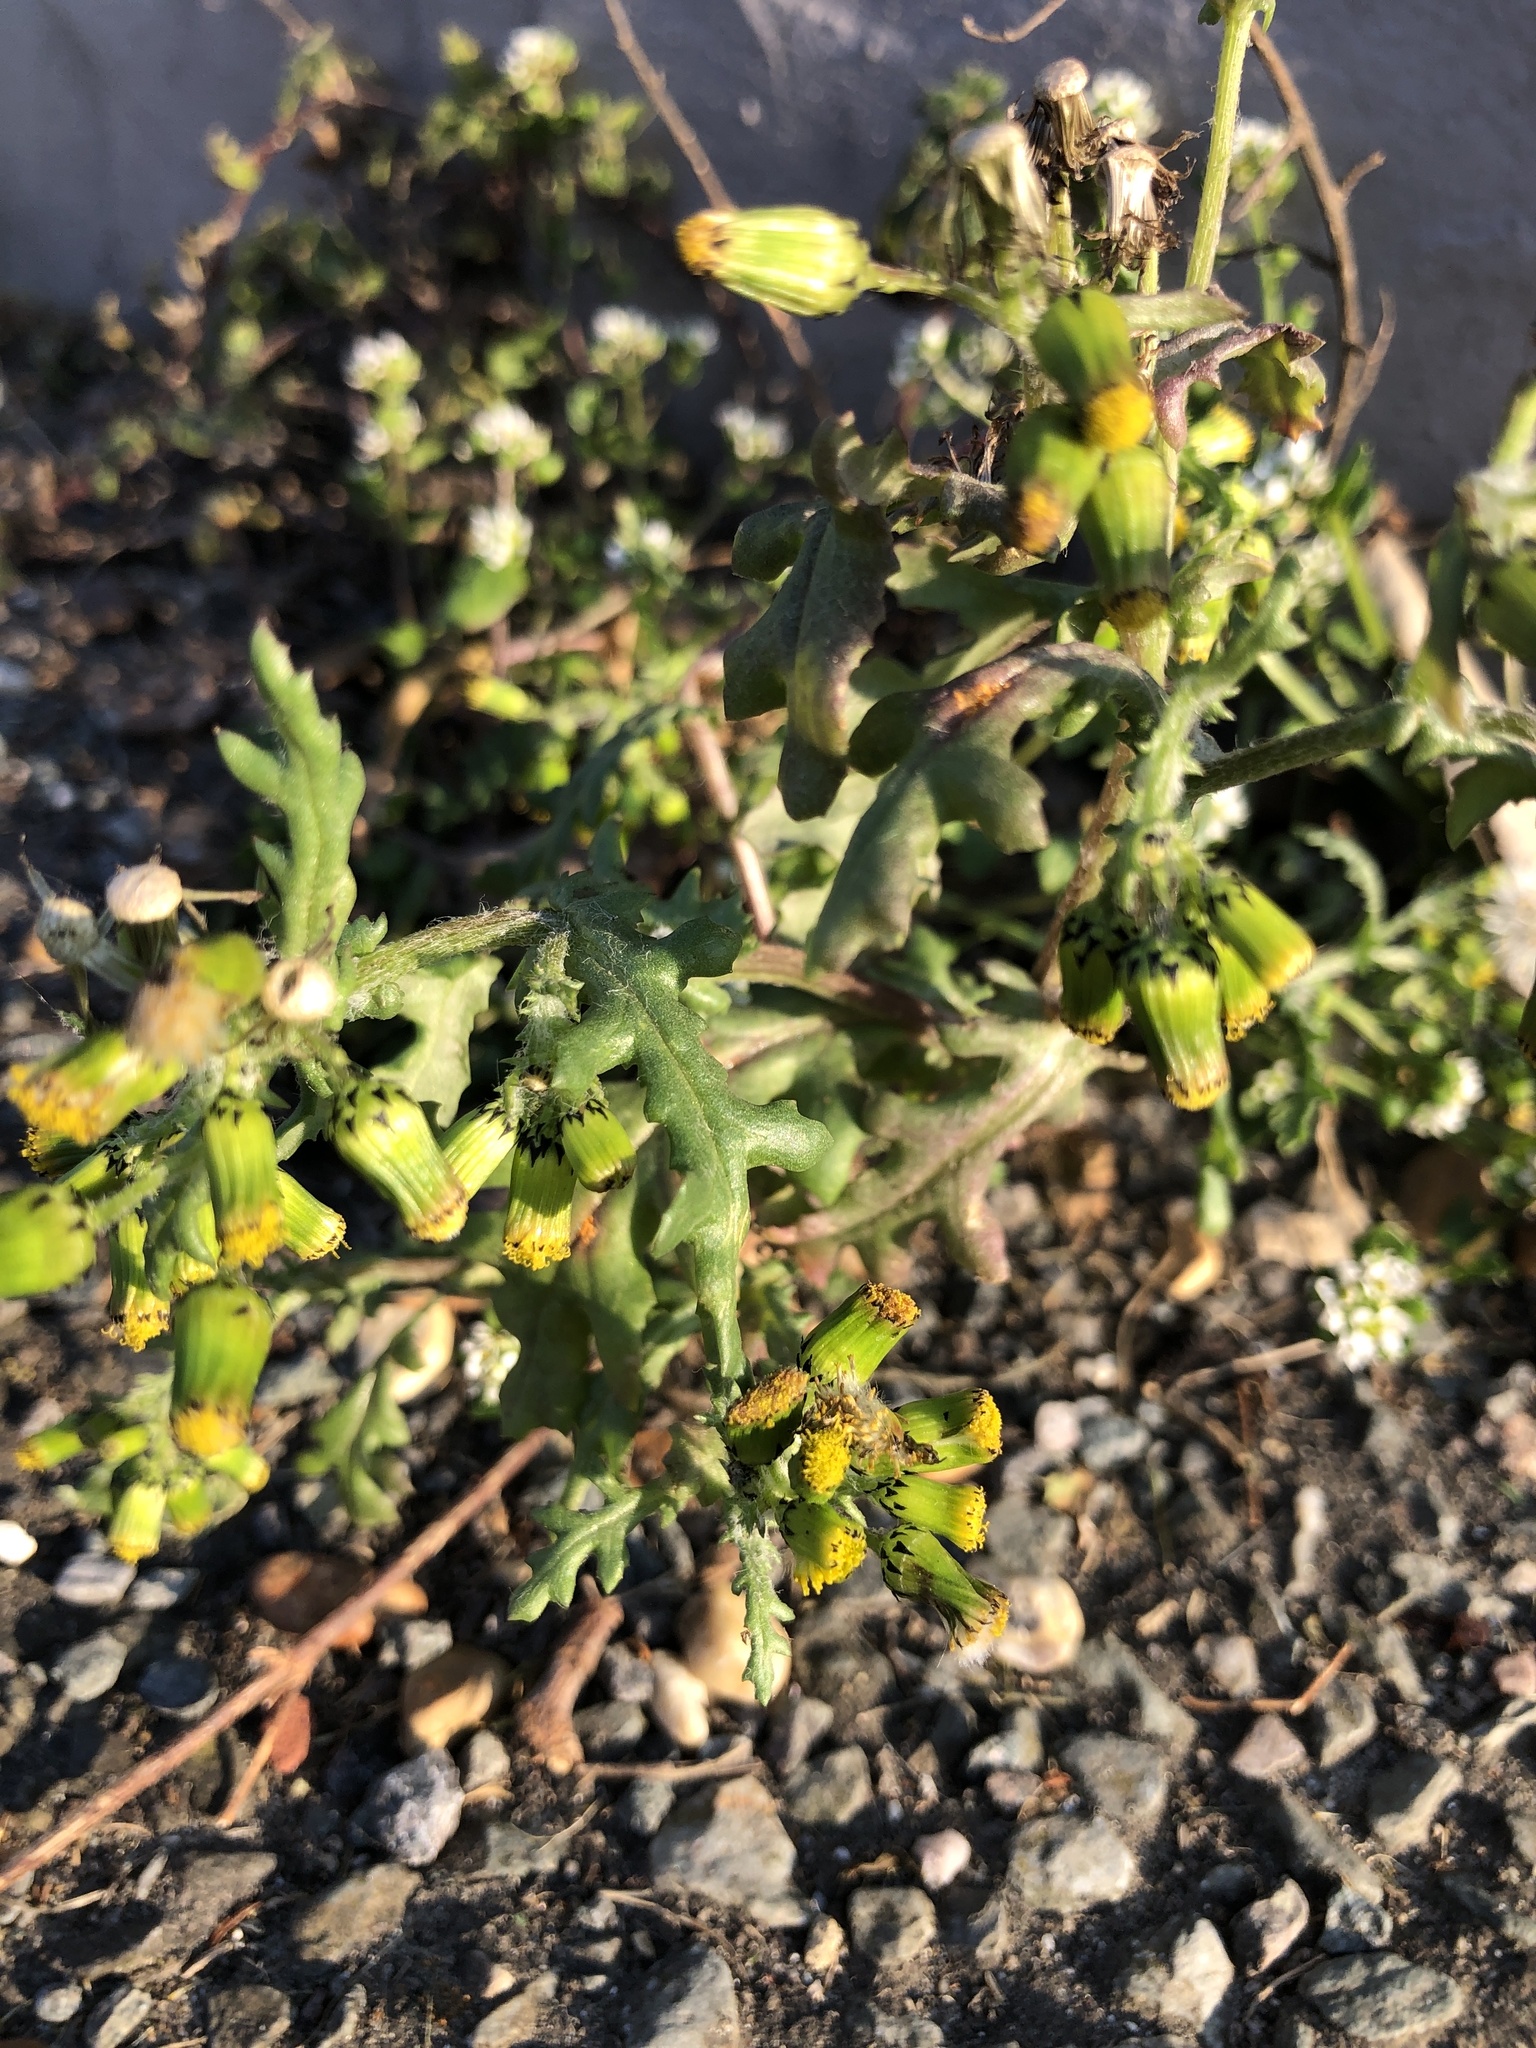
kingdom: Plantae
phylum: Tracheophyta
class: Magnoliopsida
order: Asterales
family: Asteraceae
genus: Senecio
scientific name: Senecio vulgaris
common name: Old-man-in-the-spring
